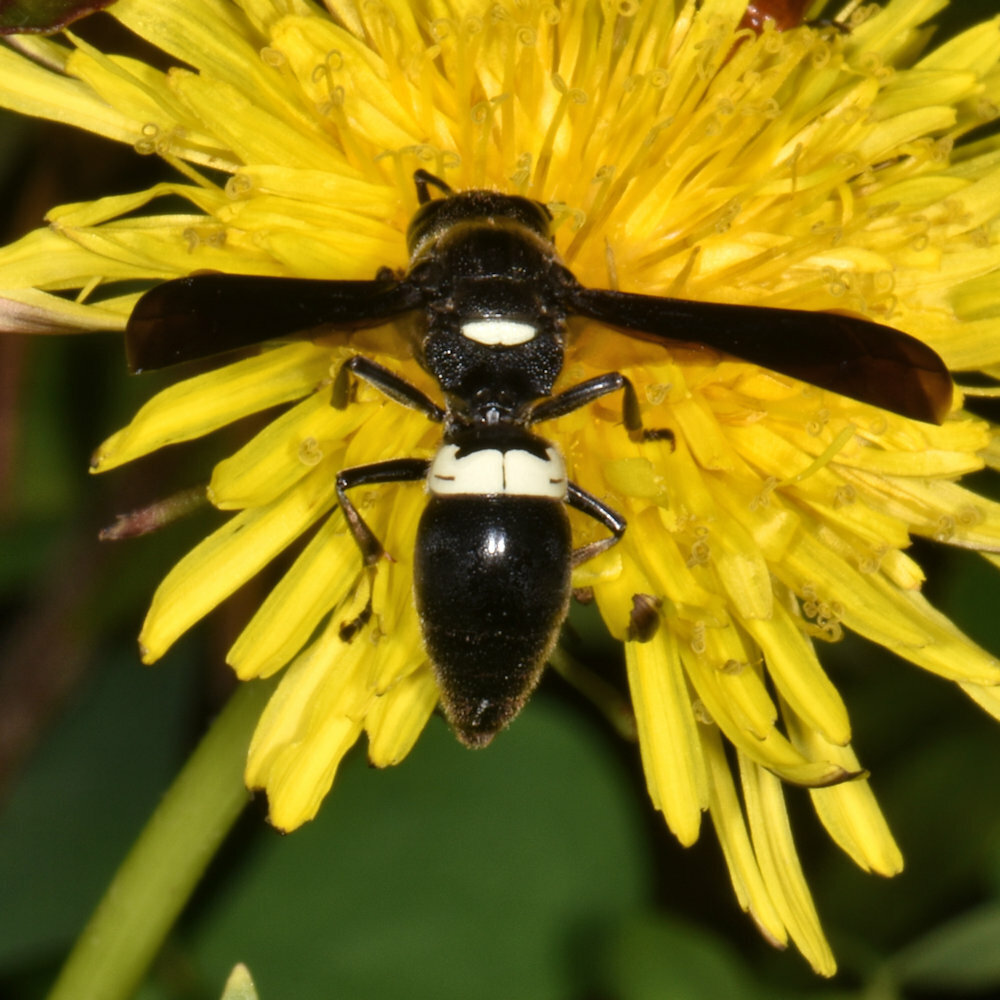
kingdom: Animalia
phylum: Arthropoda
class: Insecta
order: Hymenoptera
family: Eumenidae
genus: Monobia
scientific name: Monobia quadridens
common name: Four-toothed mason wasp
